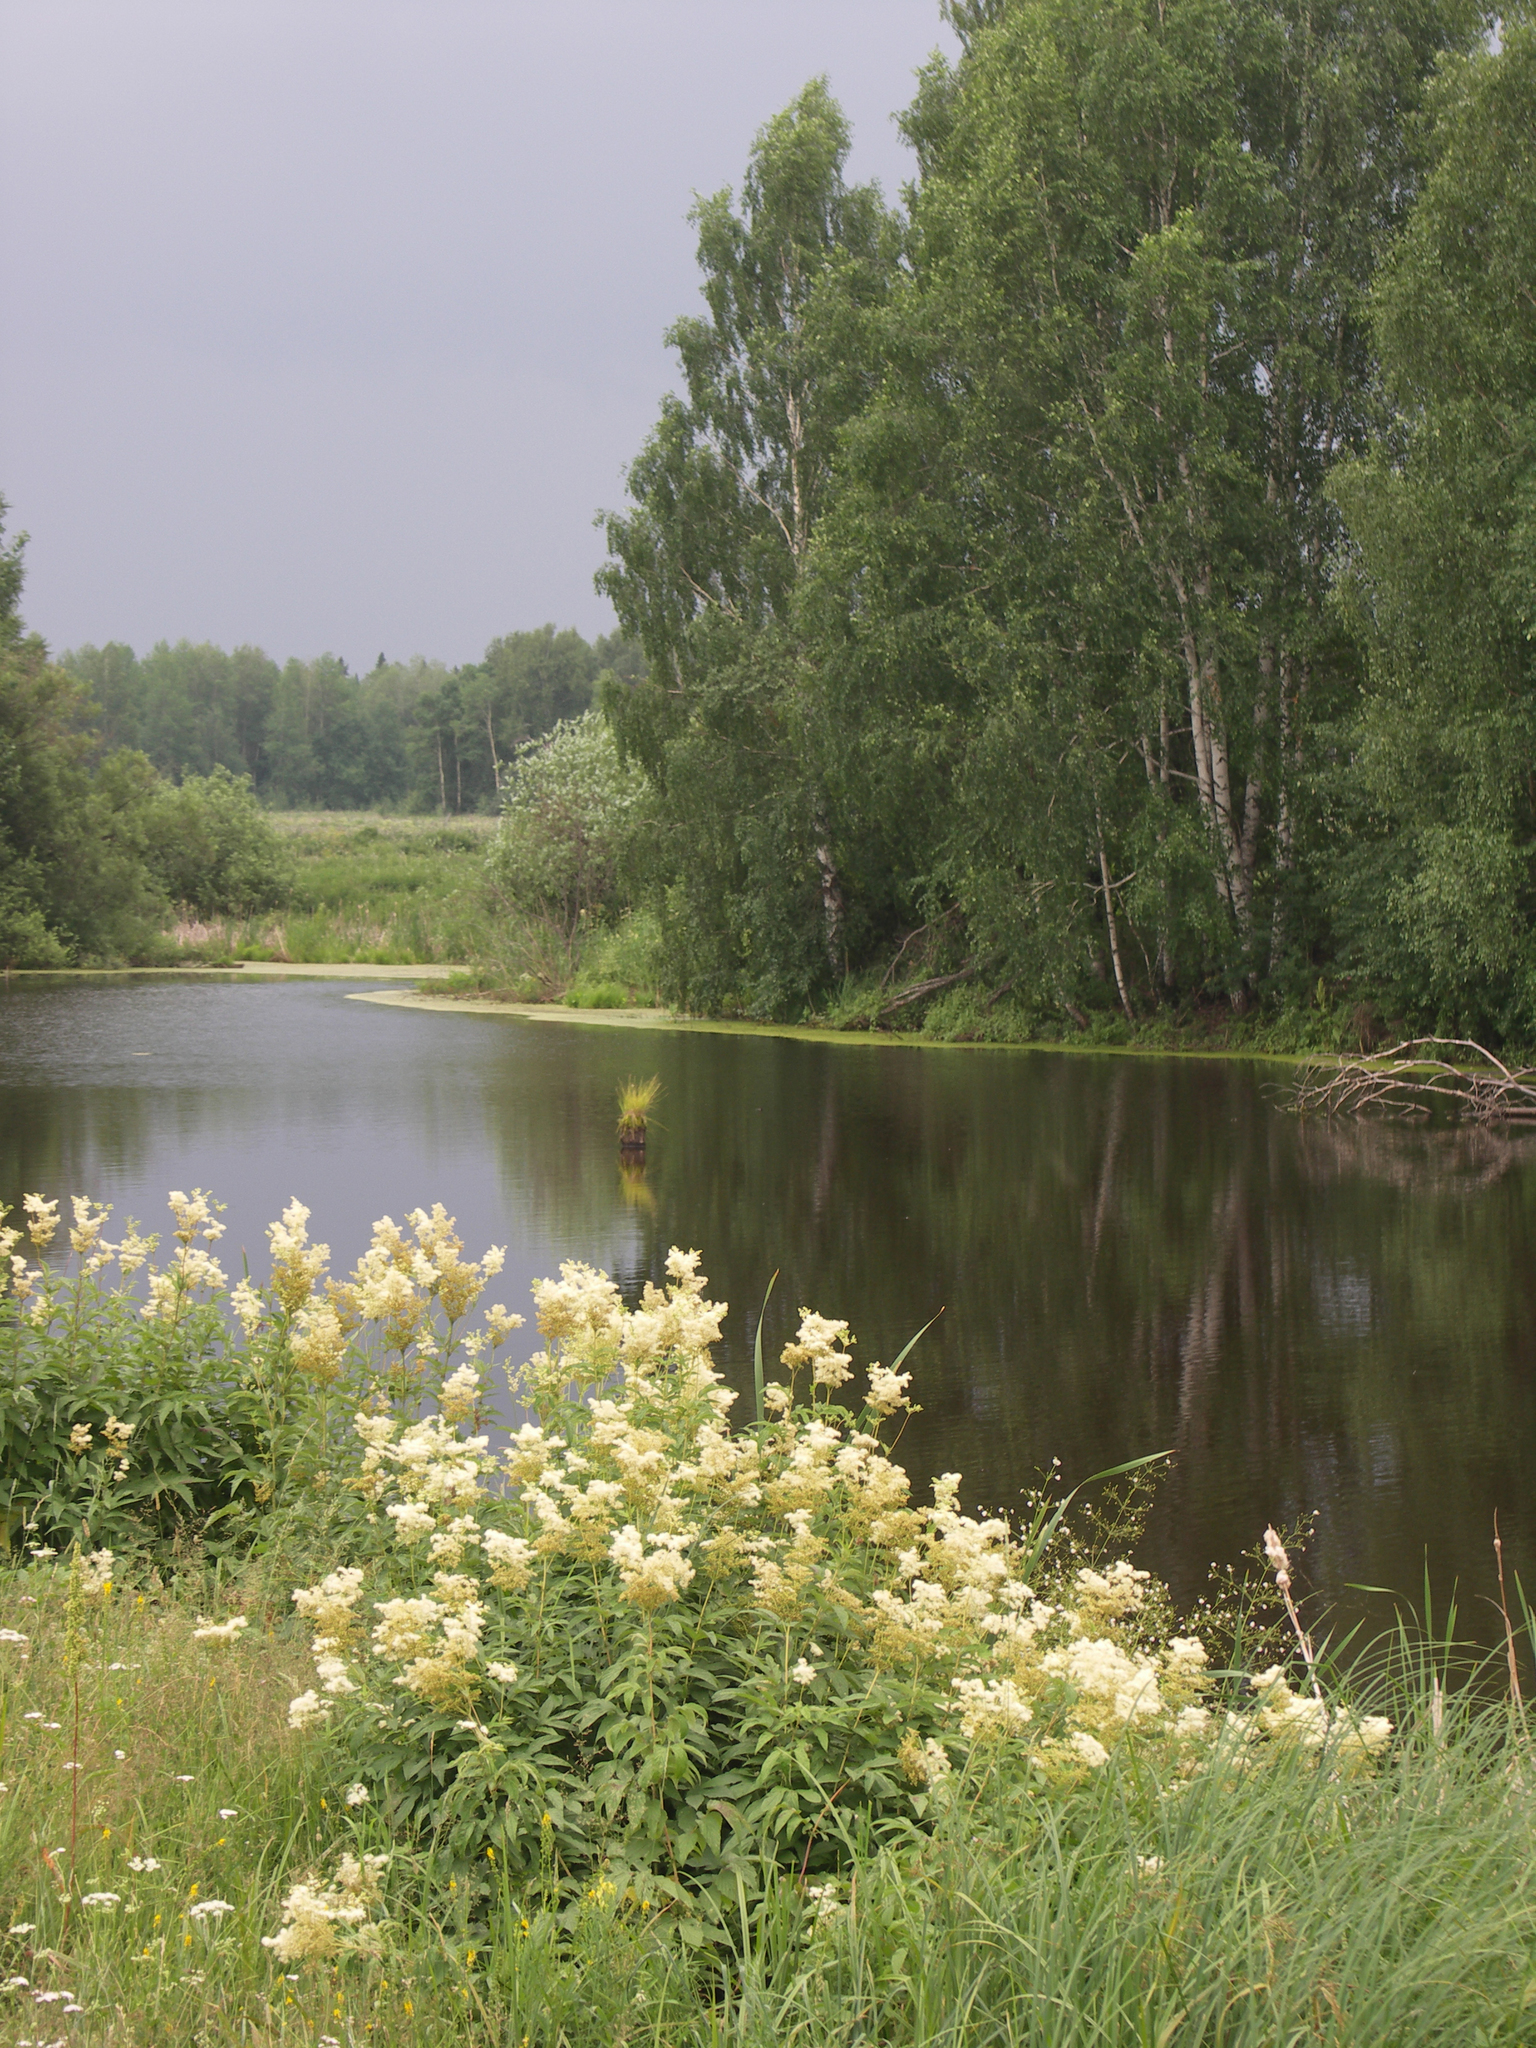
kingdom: Plantae
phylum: Tracheophyta
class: Magnoliopsida
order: Fagales
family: Betulaceae
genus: Betula
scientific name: Betula pendula
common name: Silver birch
